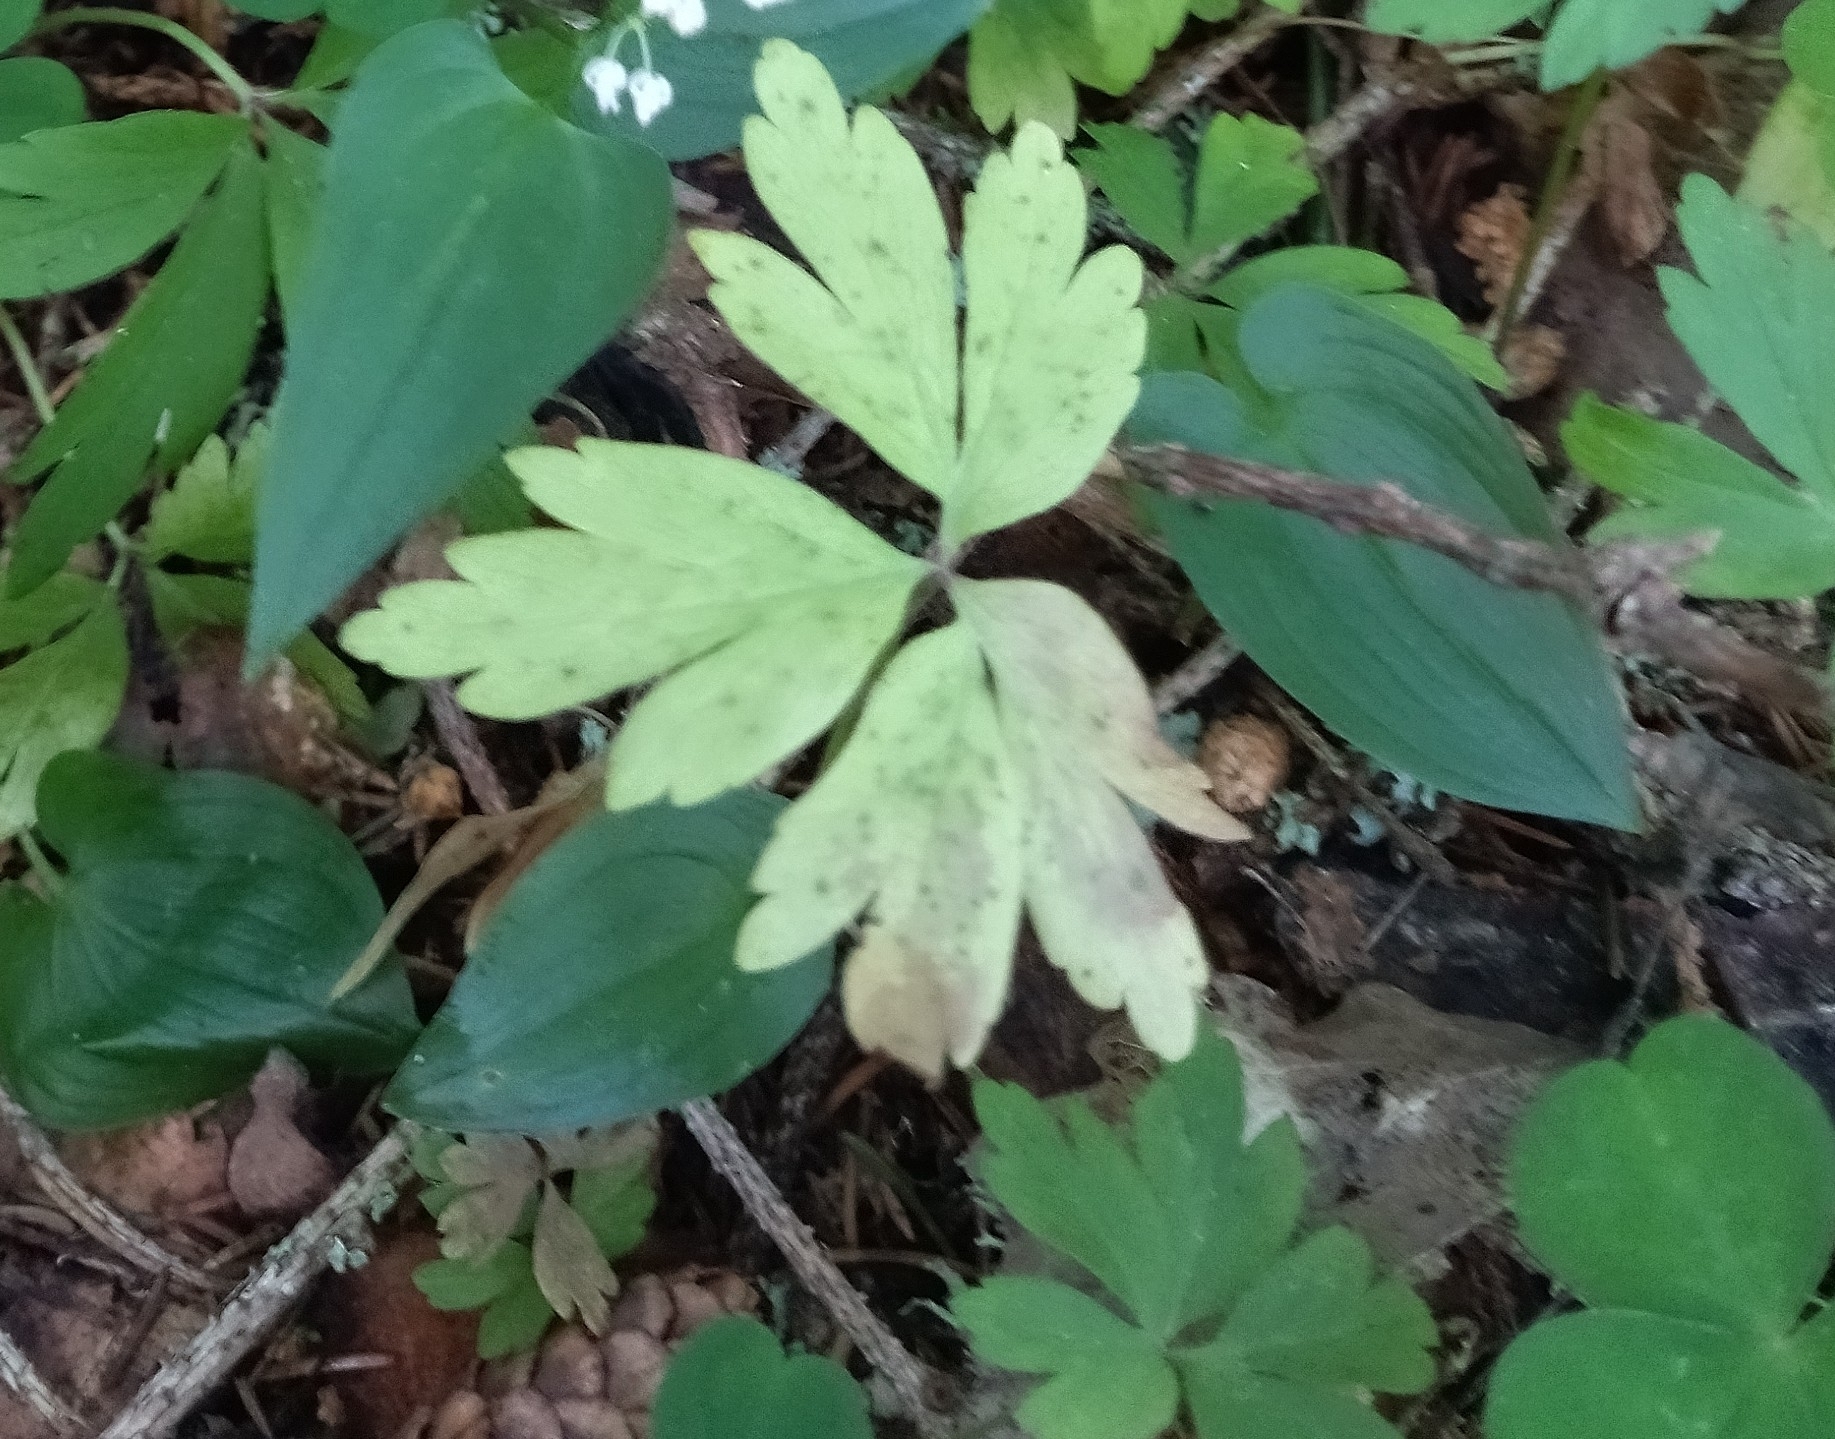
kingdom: Plantae
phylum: Tracheophyta
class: Magnoliopsida
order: Ranunculales
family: Ranunculaceae
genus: Anemone
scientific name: Anemone nemorosa
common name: Wood anemone
